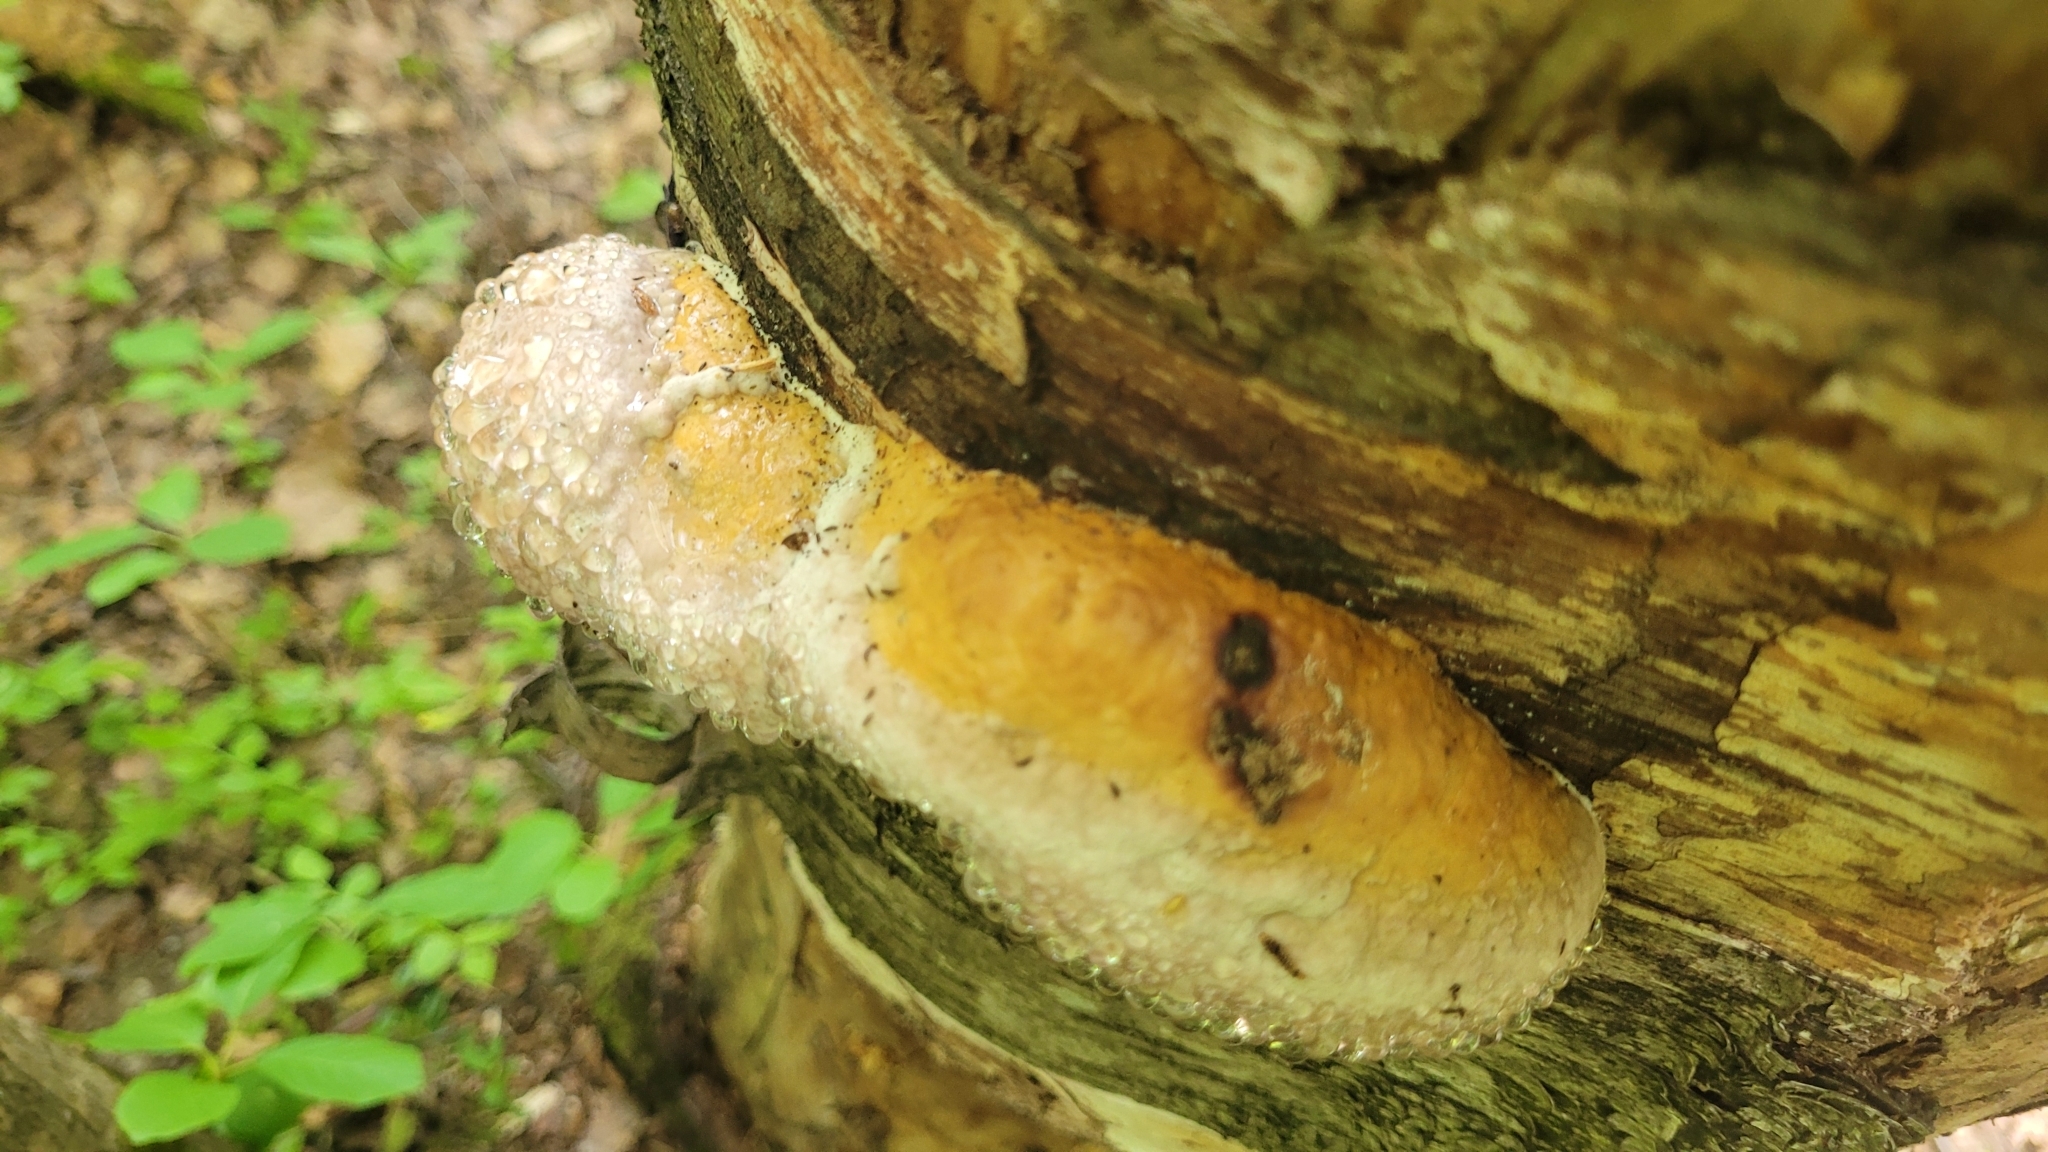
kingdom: Fungi
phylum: Basidiomycota
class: Agaricomycetes
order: Polyporales
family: Fomitopsidaceae
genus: Fomitopsis
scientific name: Fomitopsis pinicola
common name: Red-belted bracket
